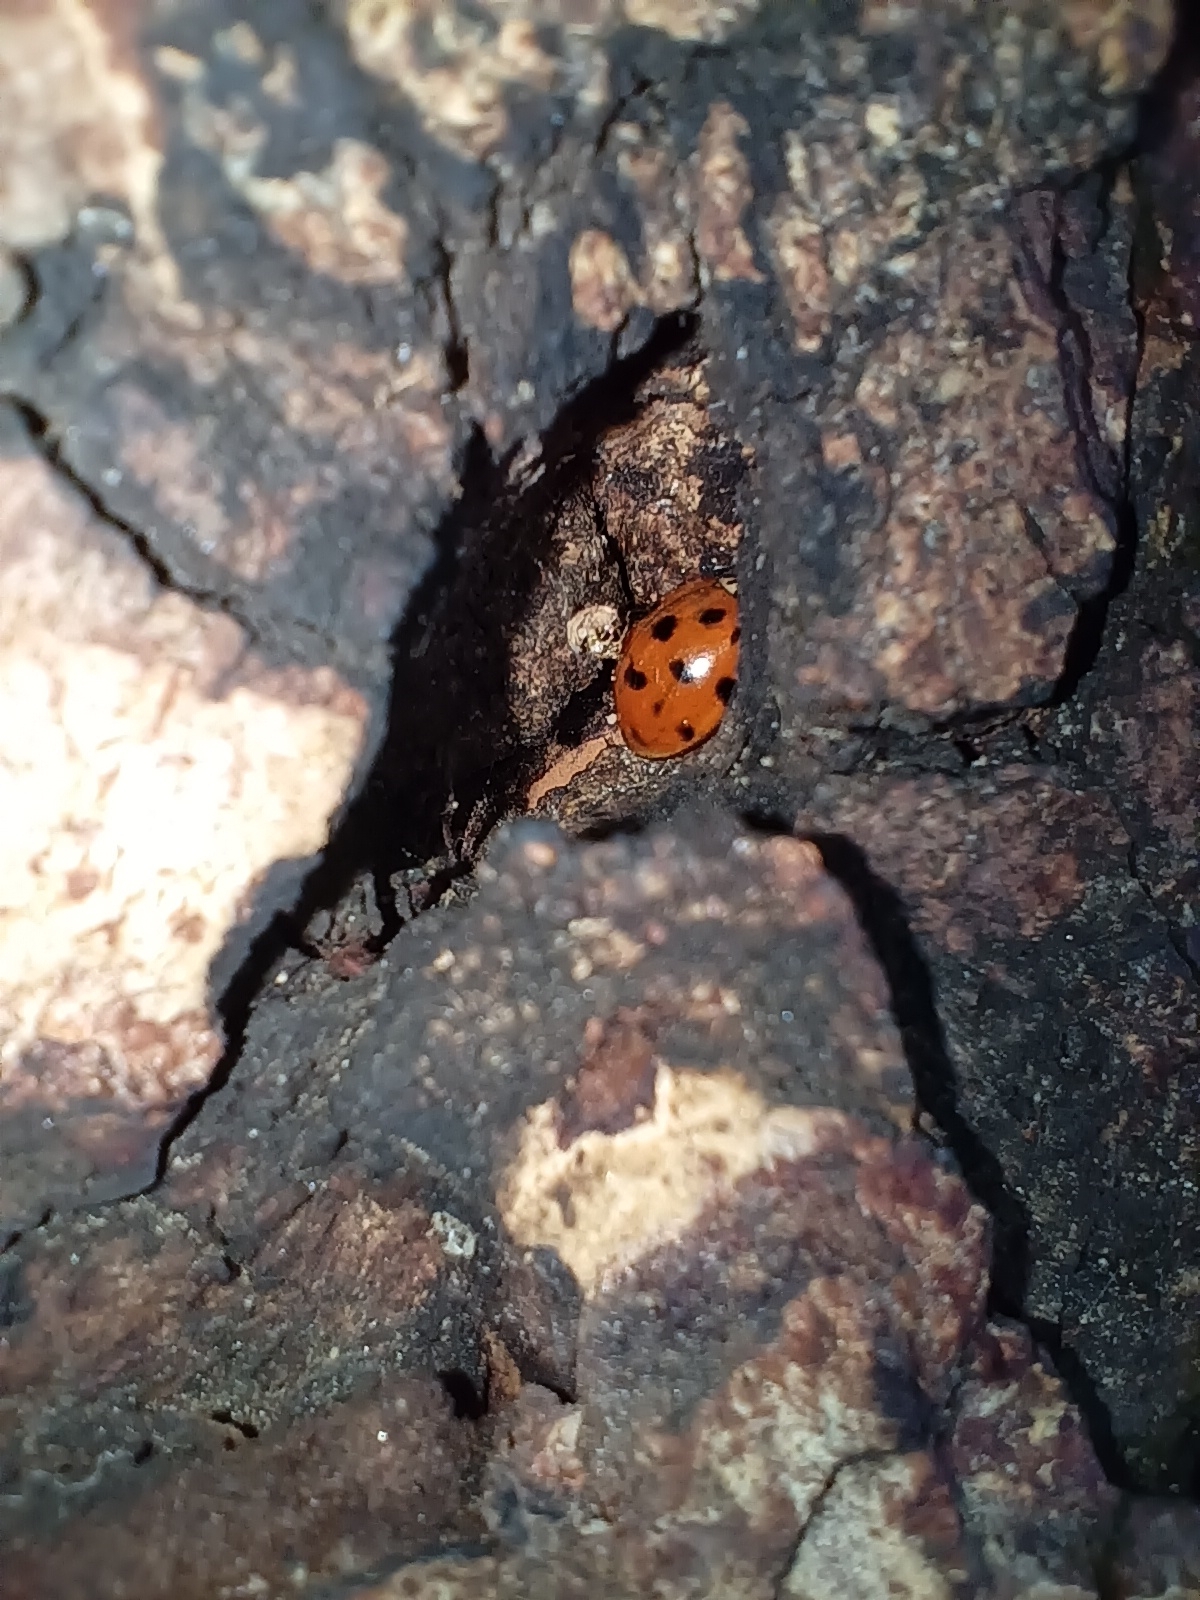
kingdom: Animalia
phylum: Arthropoda
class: Insecta
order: Coleoptera
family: Coccinellidae
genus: Harmonia
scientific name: Harmonia axyridis
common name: Harlequin ladybird
